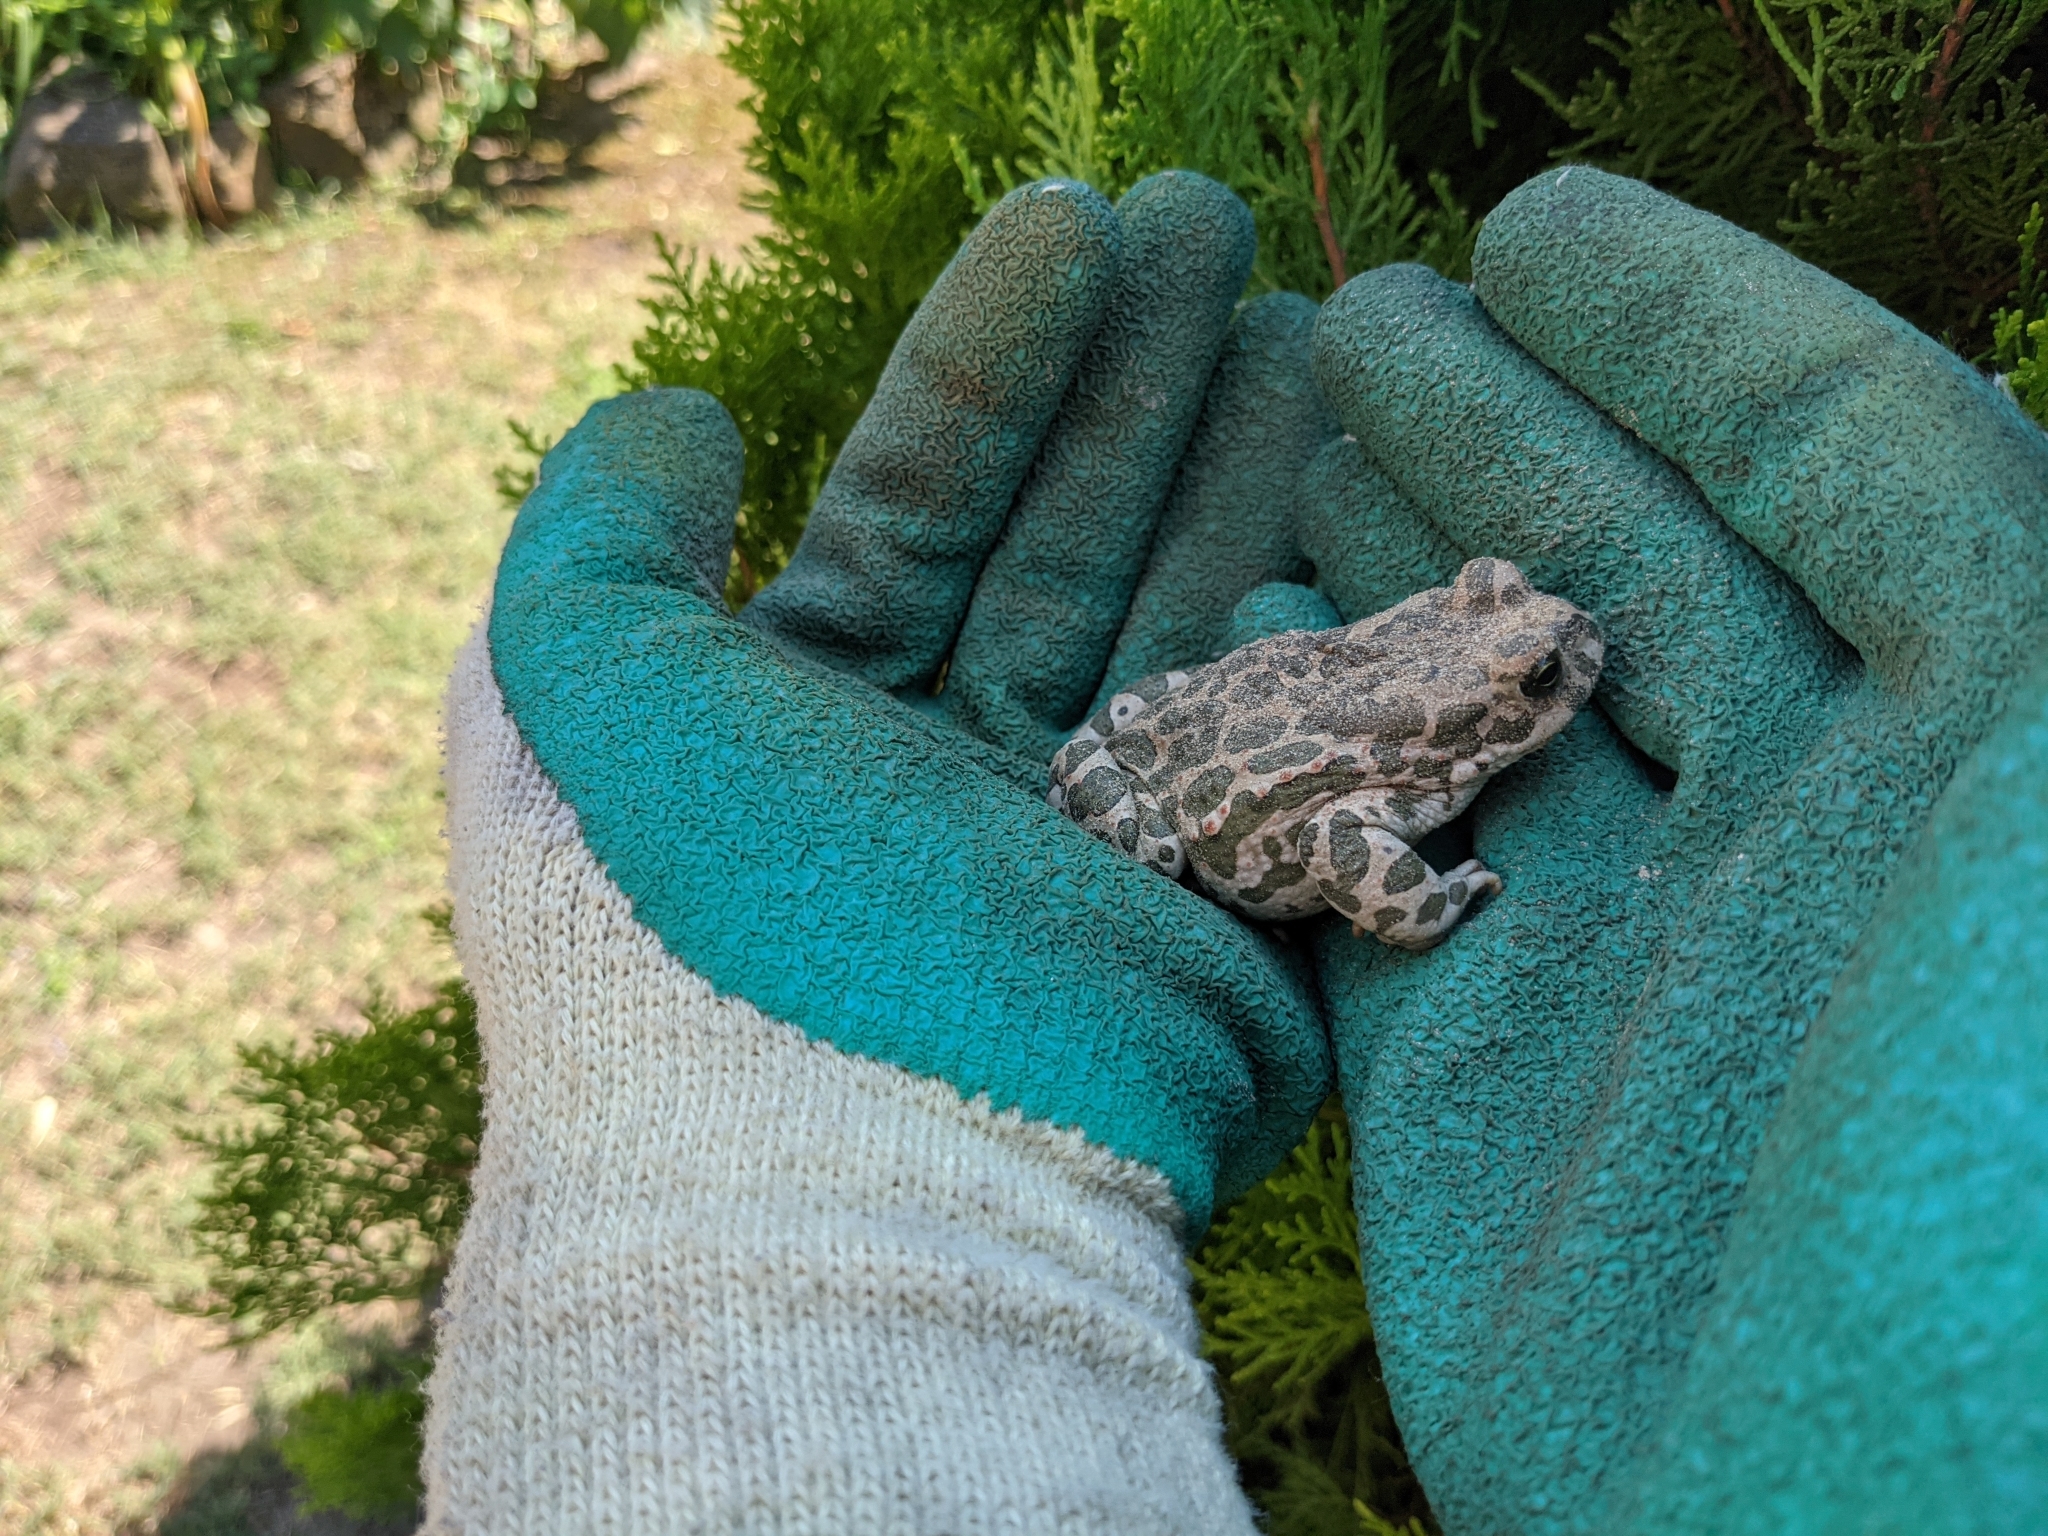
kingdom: Animalia
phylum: Chordata
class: Amphibia
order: Anura
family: Bufonidae
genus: Bufotes
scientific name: Bufotes viridis
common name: European green toad
